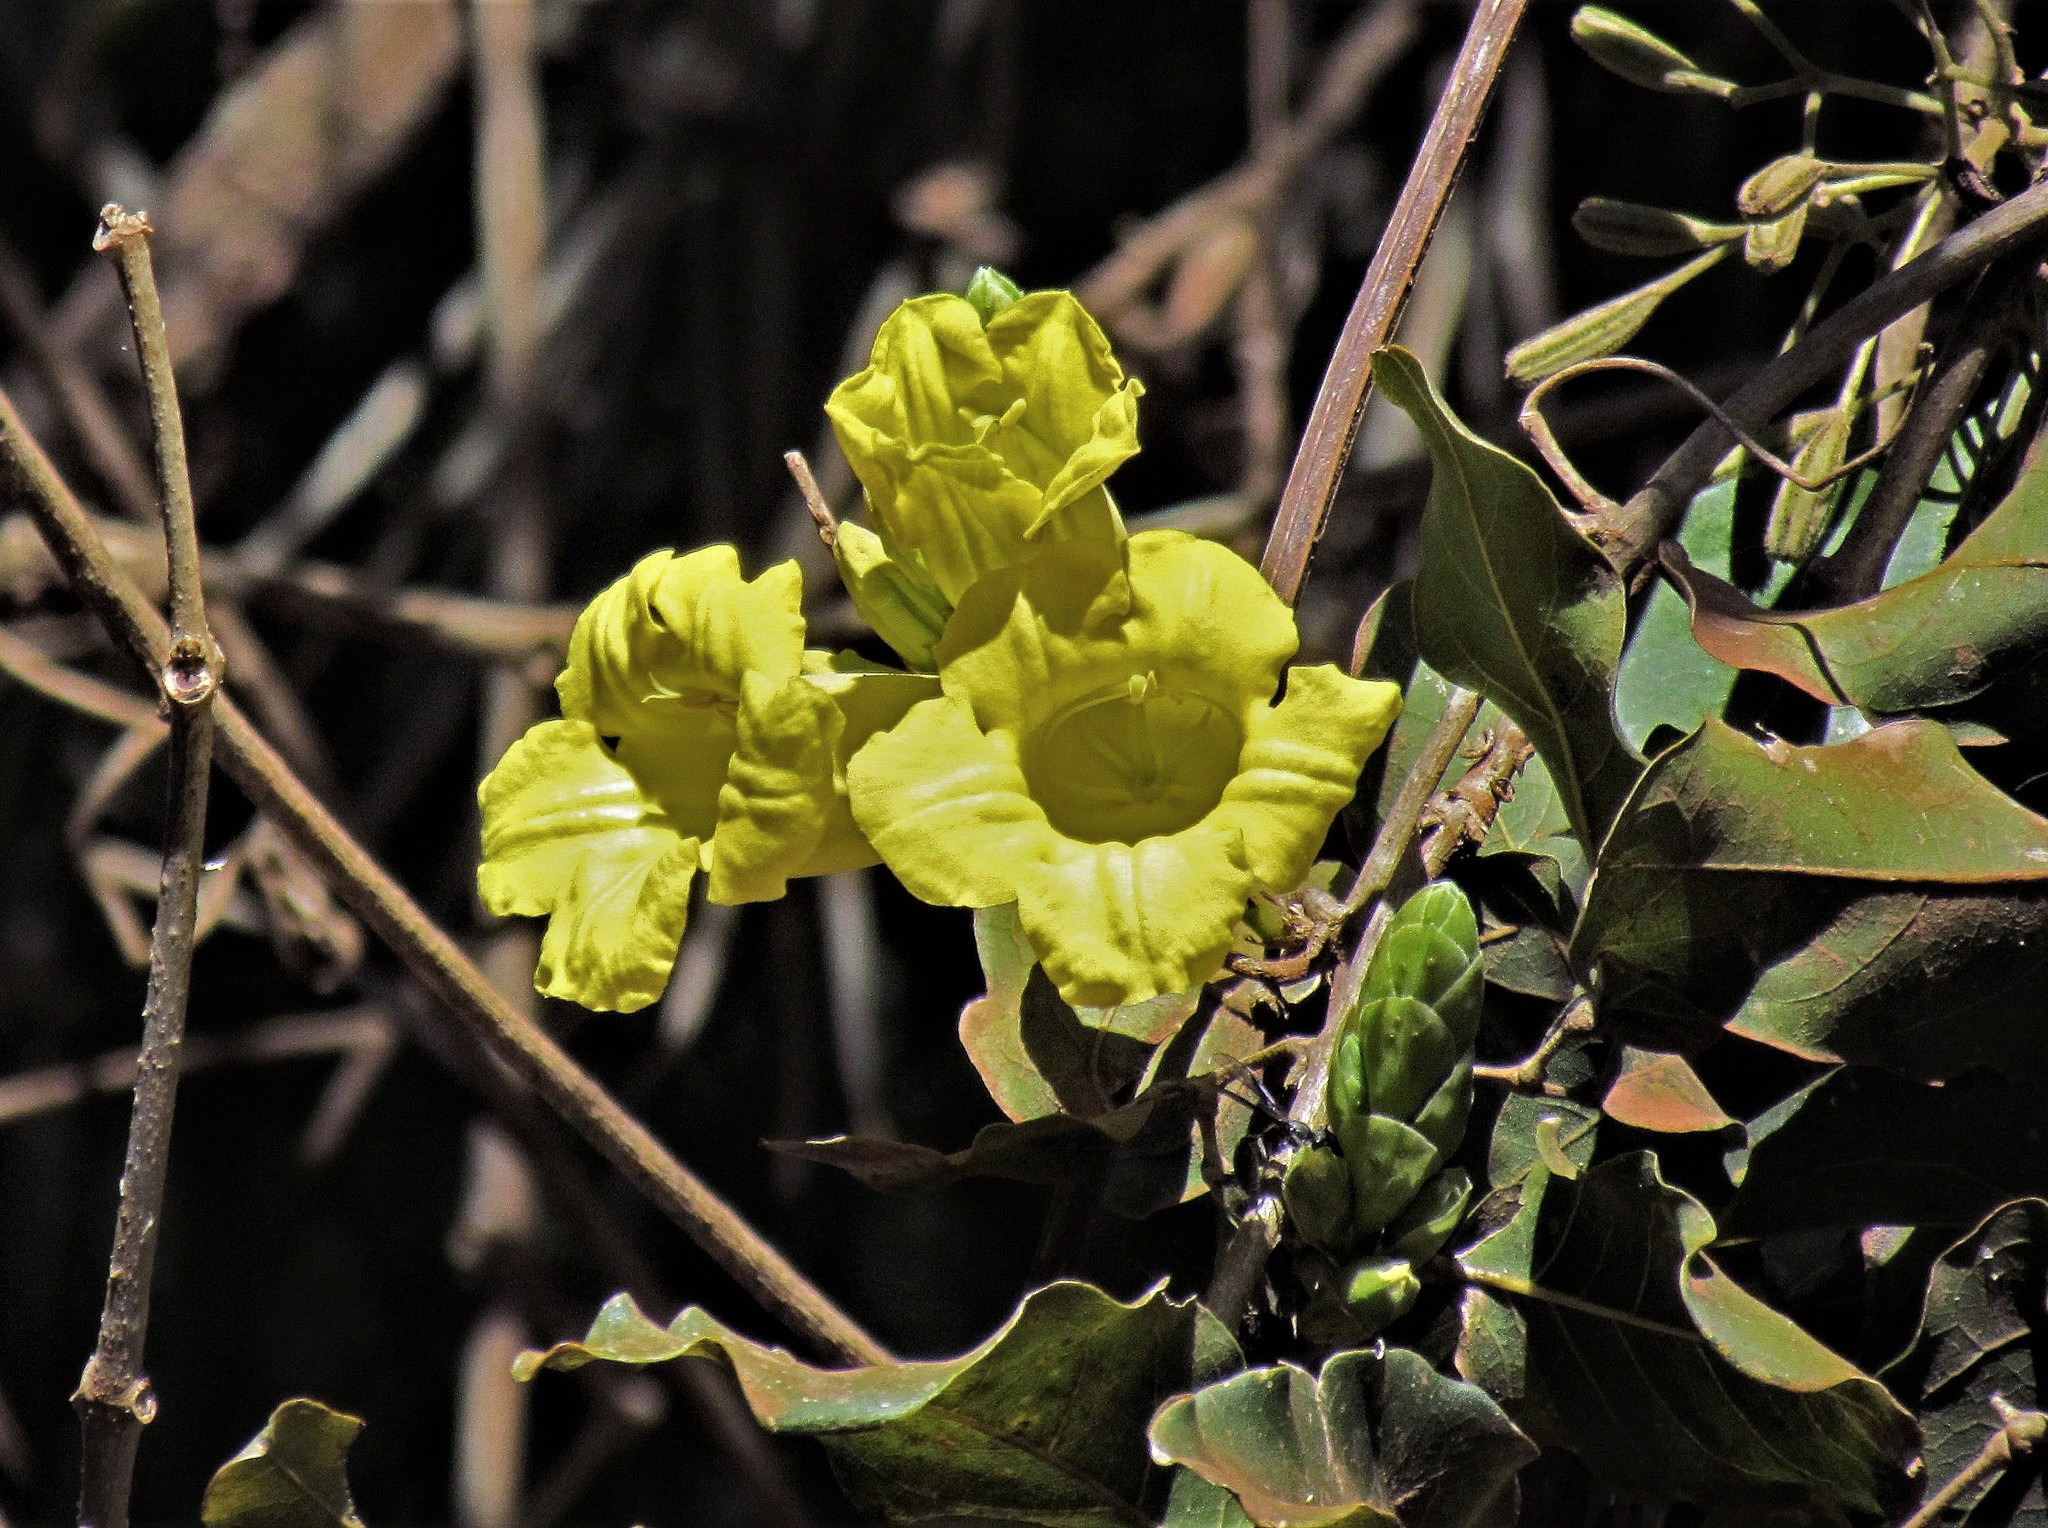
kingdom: Plantae
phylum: Tracheophyta
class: Magnoliopsida
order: Lamiales
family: Bignoniaceae
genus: Adenocalymma
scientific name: Adenocalymma paulistarum
